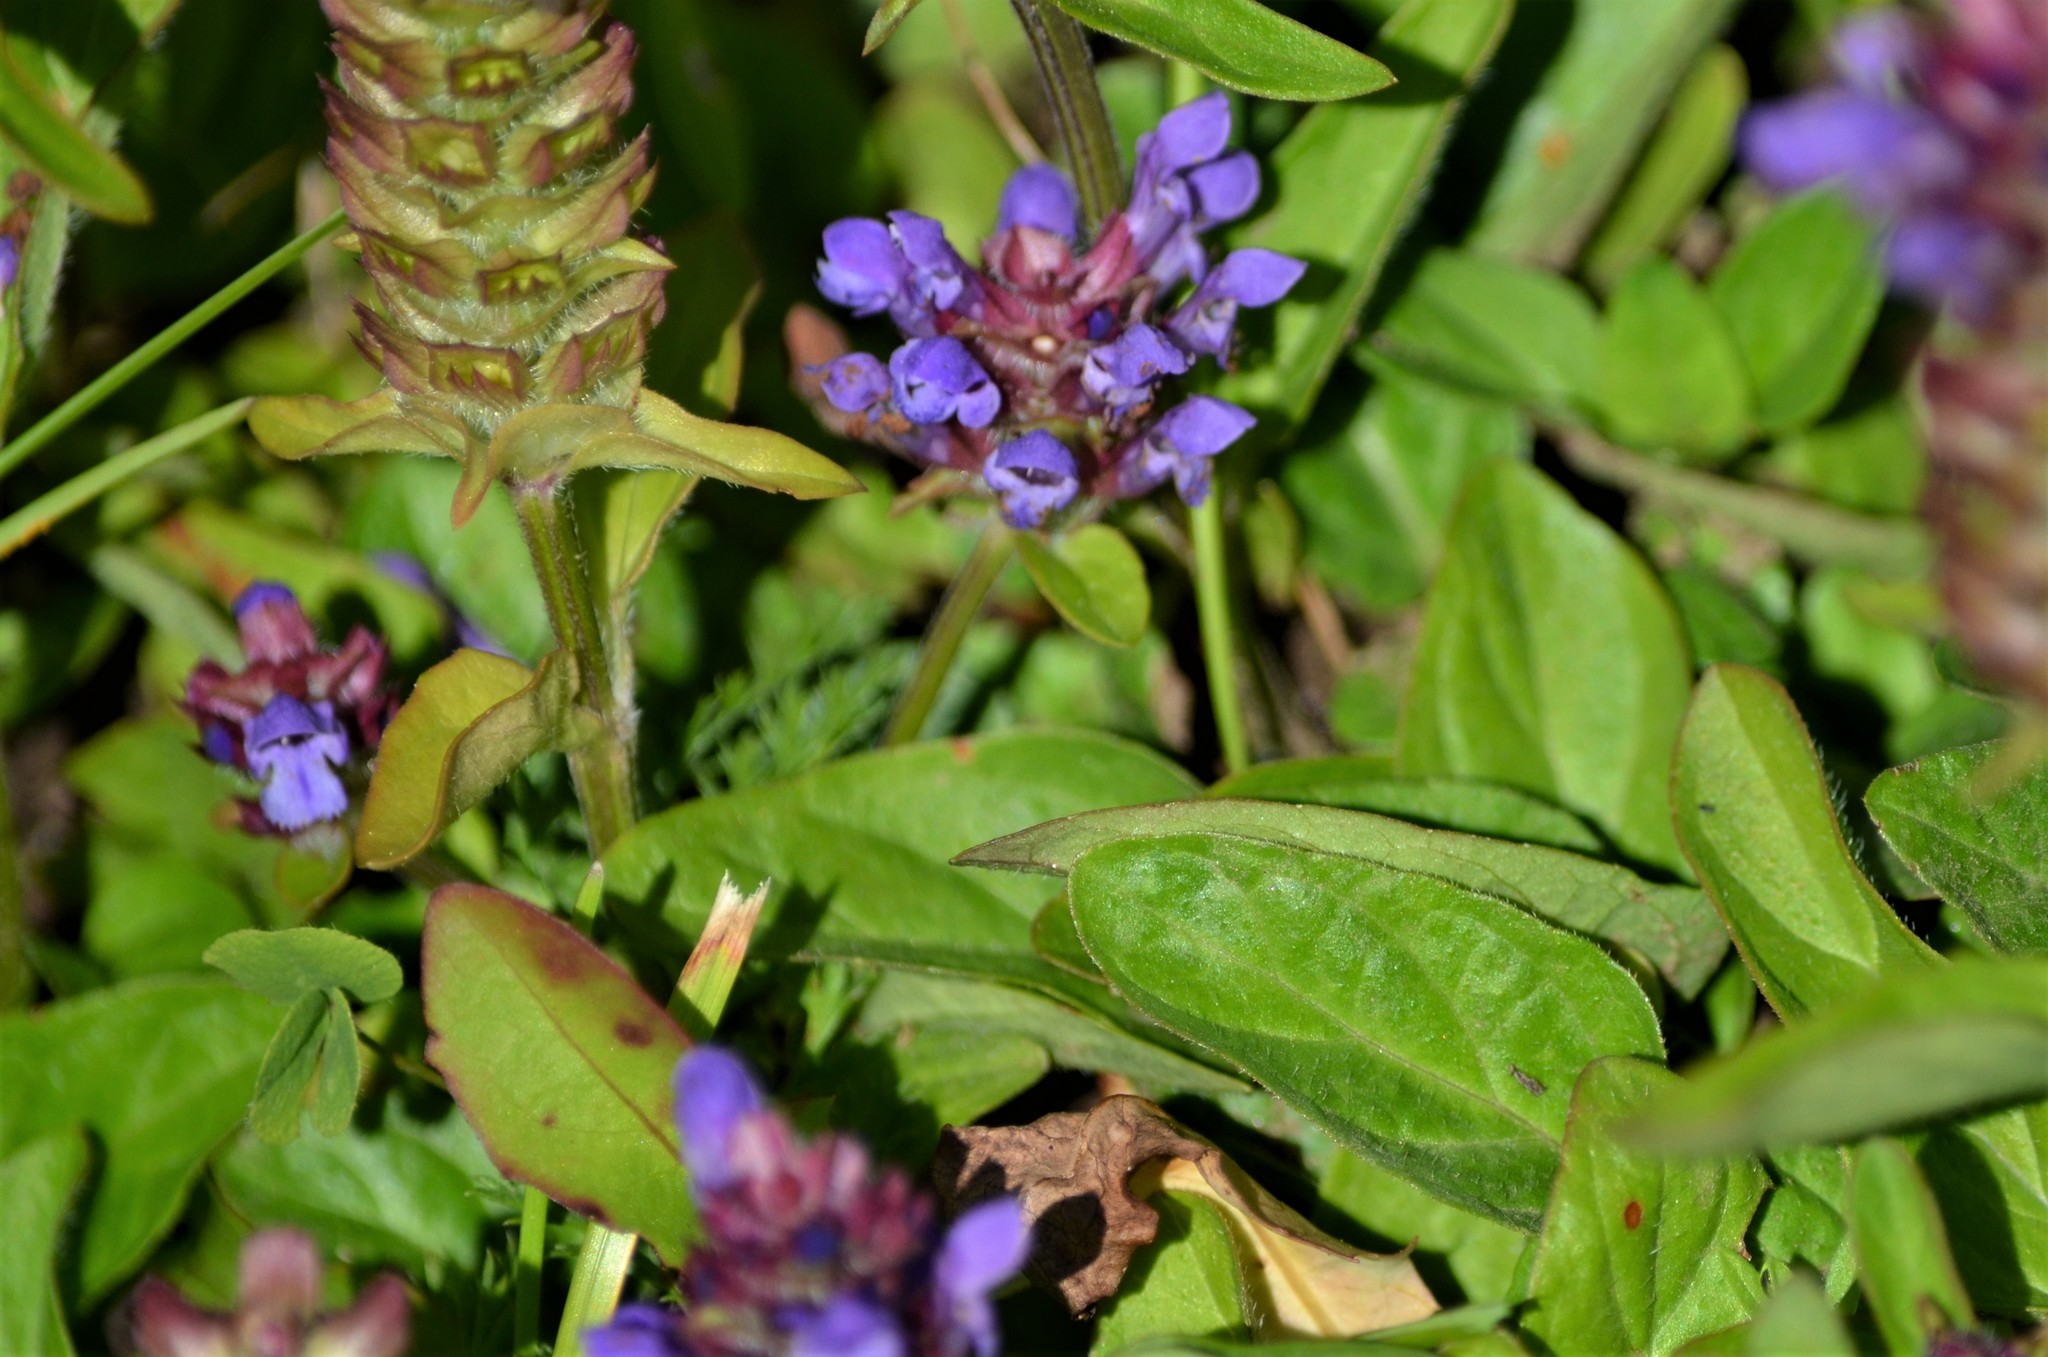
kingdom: Plantae
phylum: Tracheophyta
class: Magnoliopsida
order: Lamiales
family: Lamiaceae
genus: Prunella
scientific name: Prunella vulgaris
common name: Heal-all
